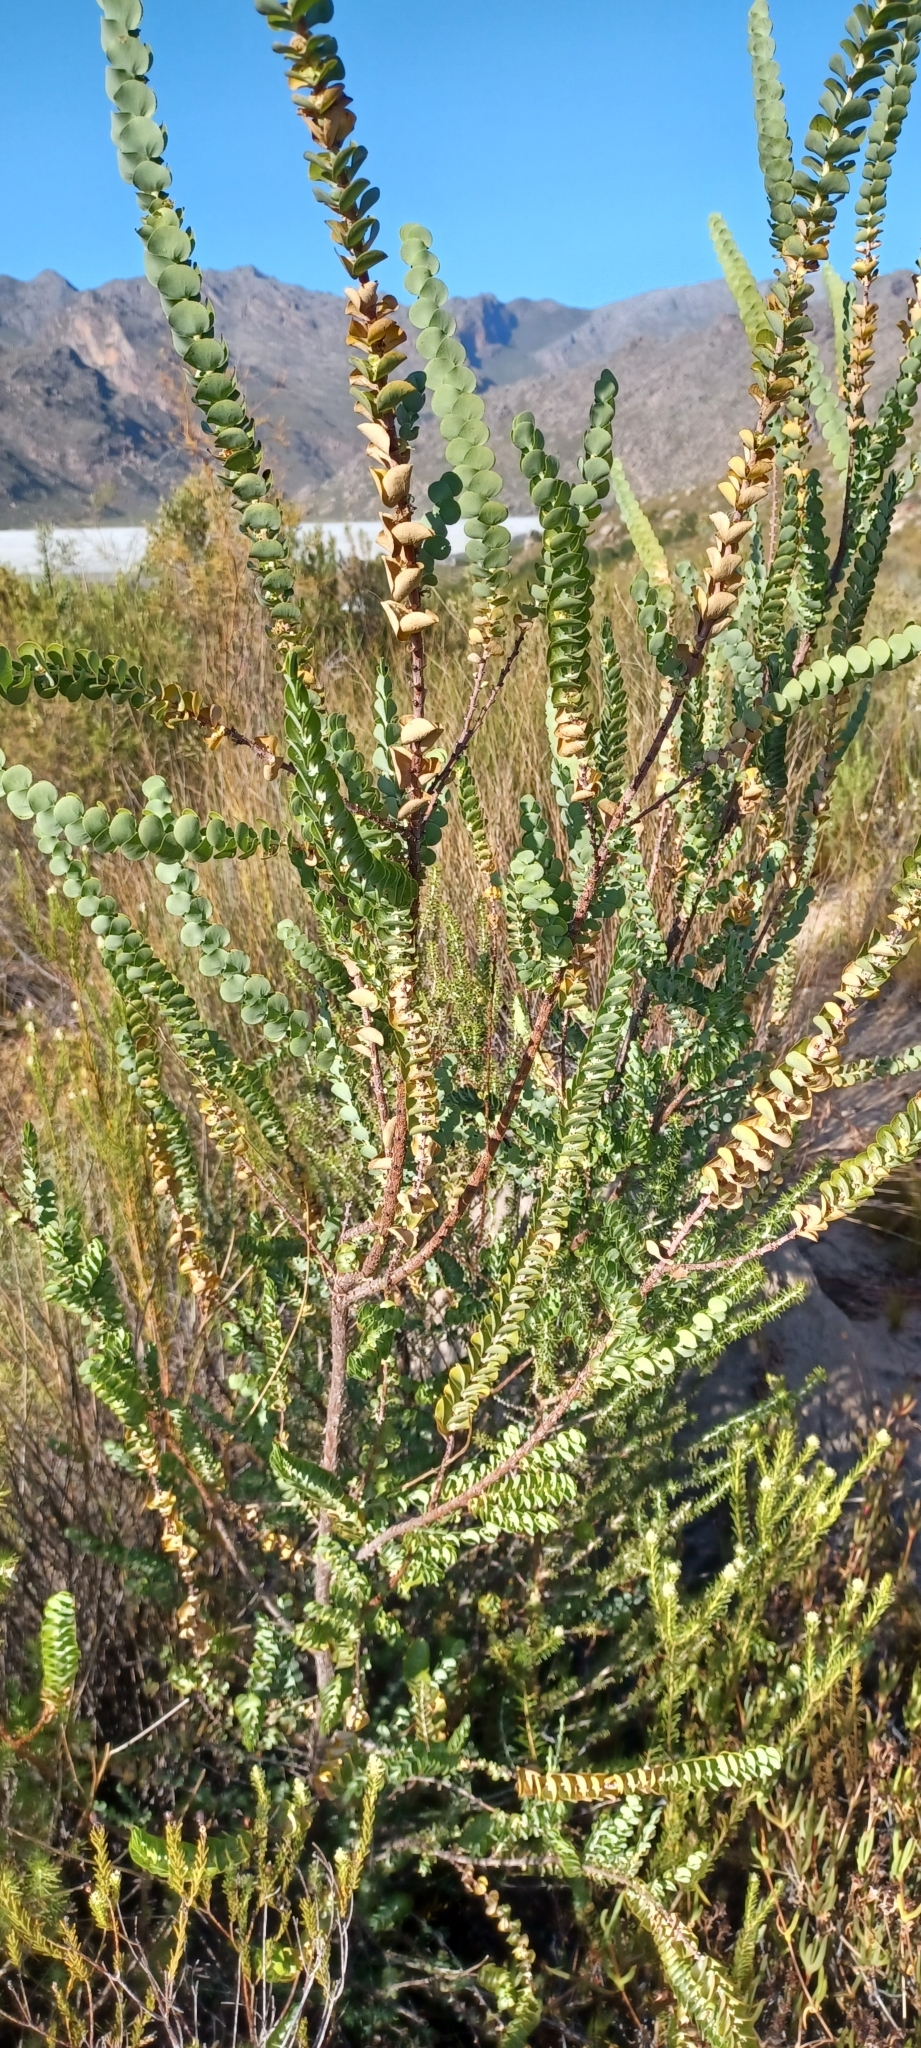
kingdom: Plantae
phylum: Tracheophyta
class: Magnoliopsida
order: Rosales
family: Rosaceae
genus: Cliffortia
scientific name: Cliffortia crenata
